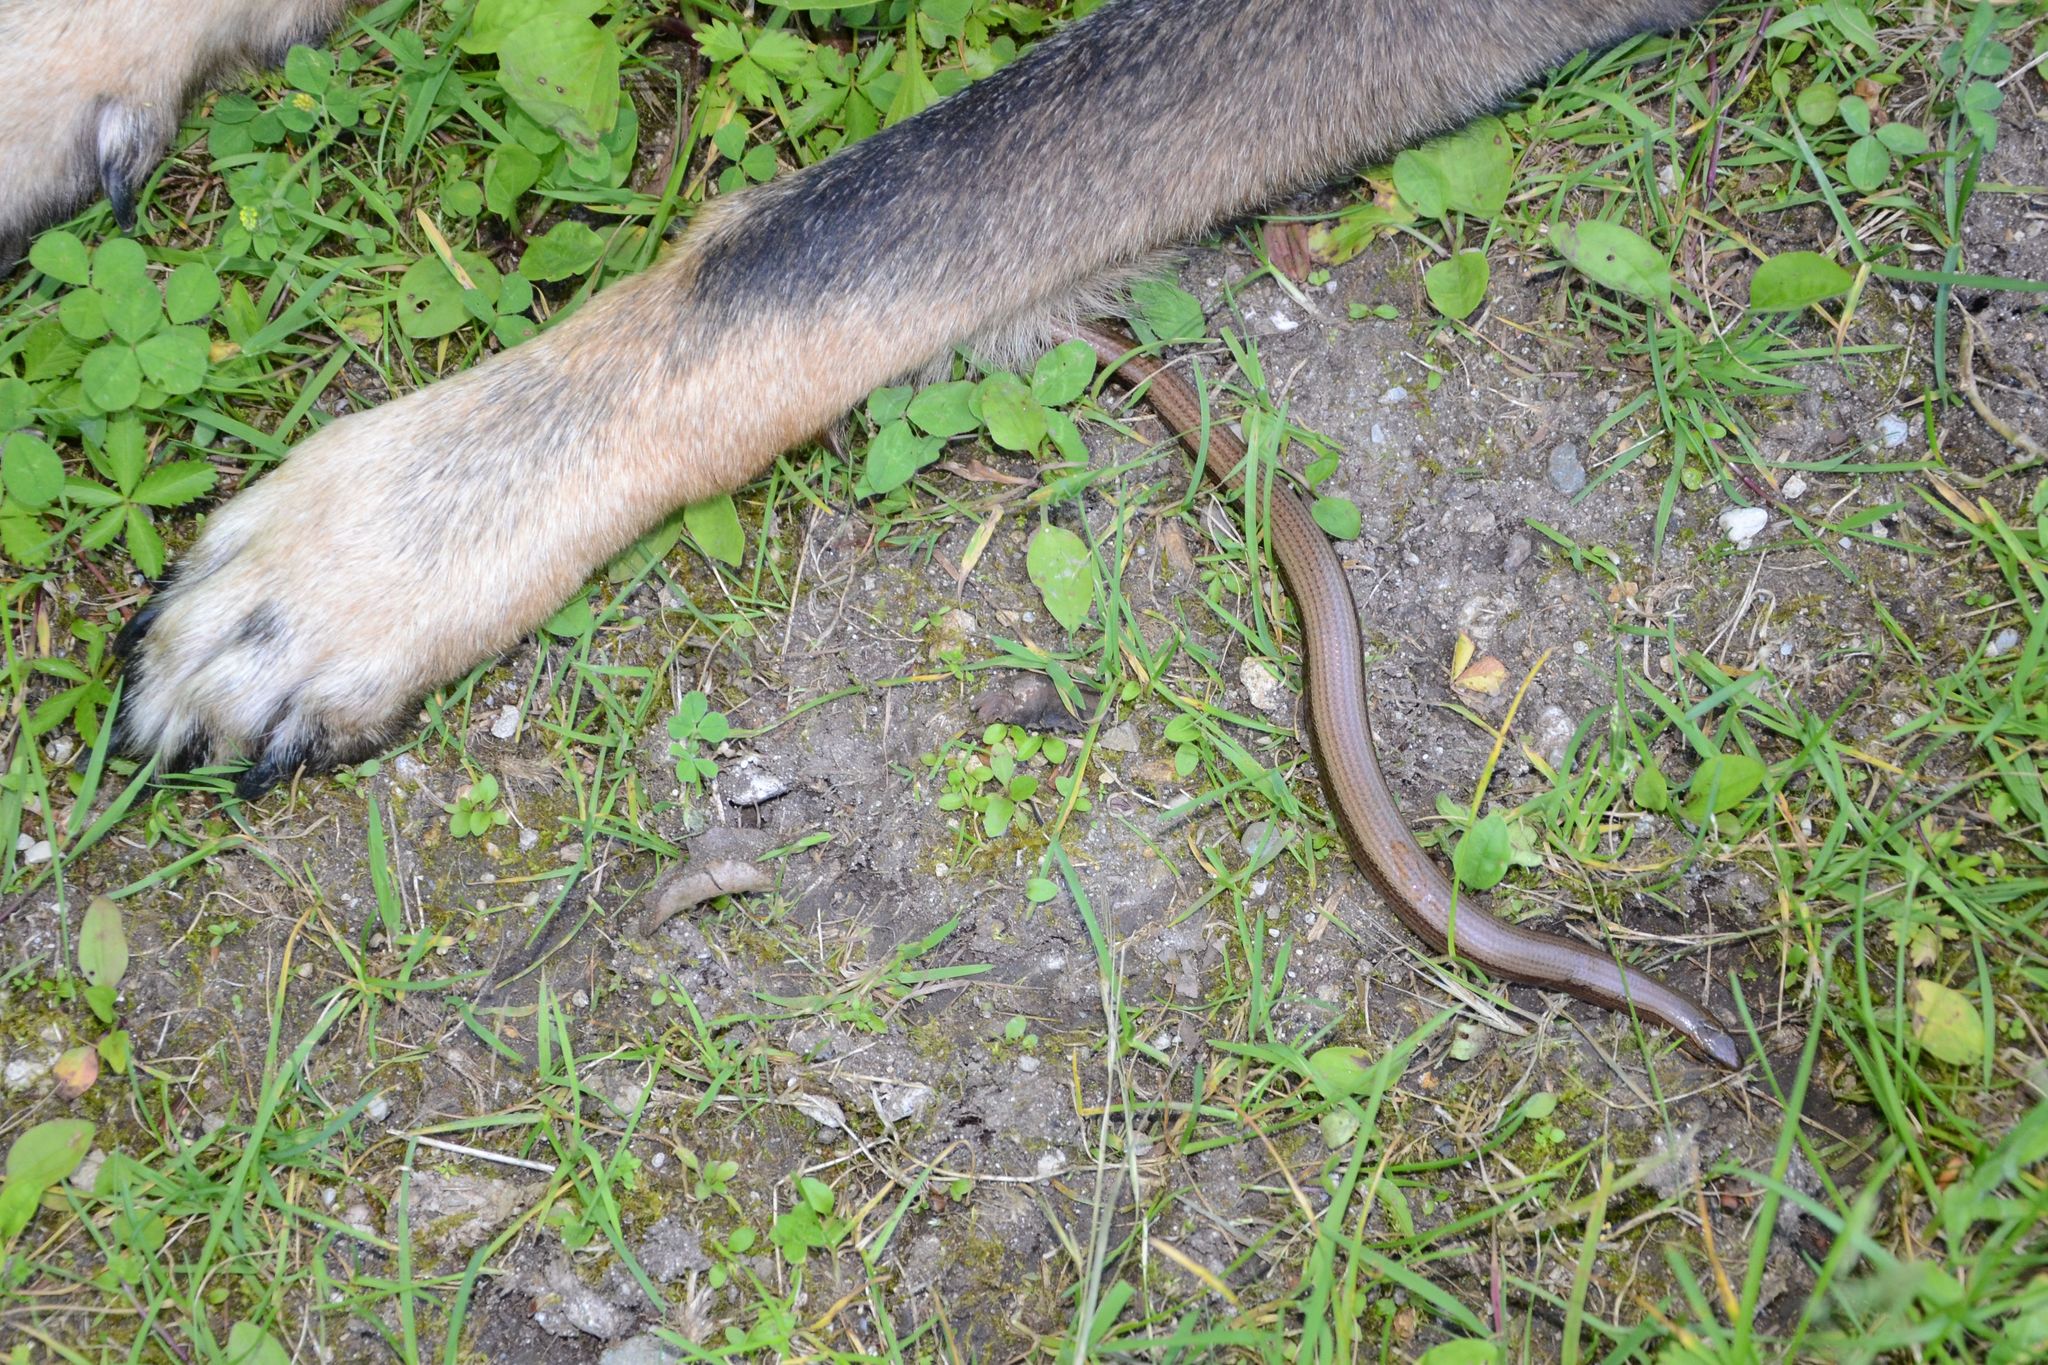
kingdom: Animalia
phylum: Chordata
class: Squamata
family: Anguidae
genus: Anguis
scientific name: Anguis fragilis
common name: Slow worm
